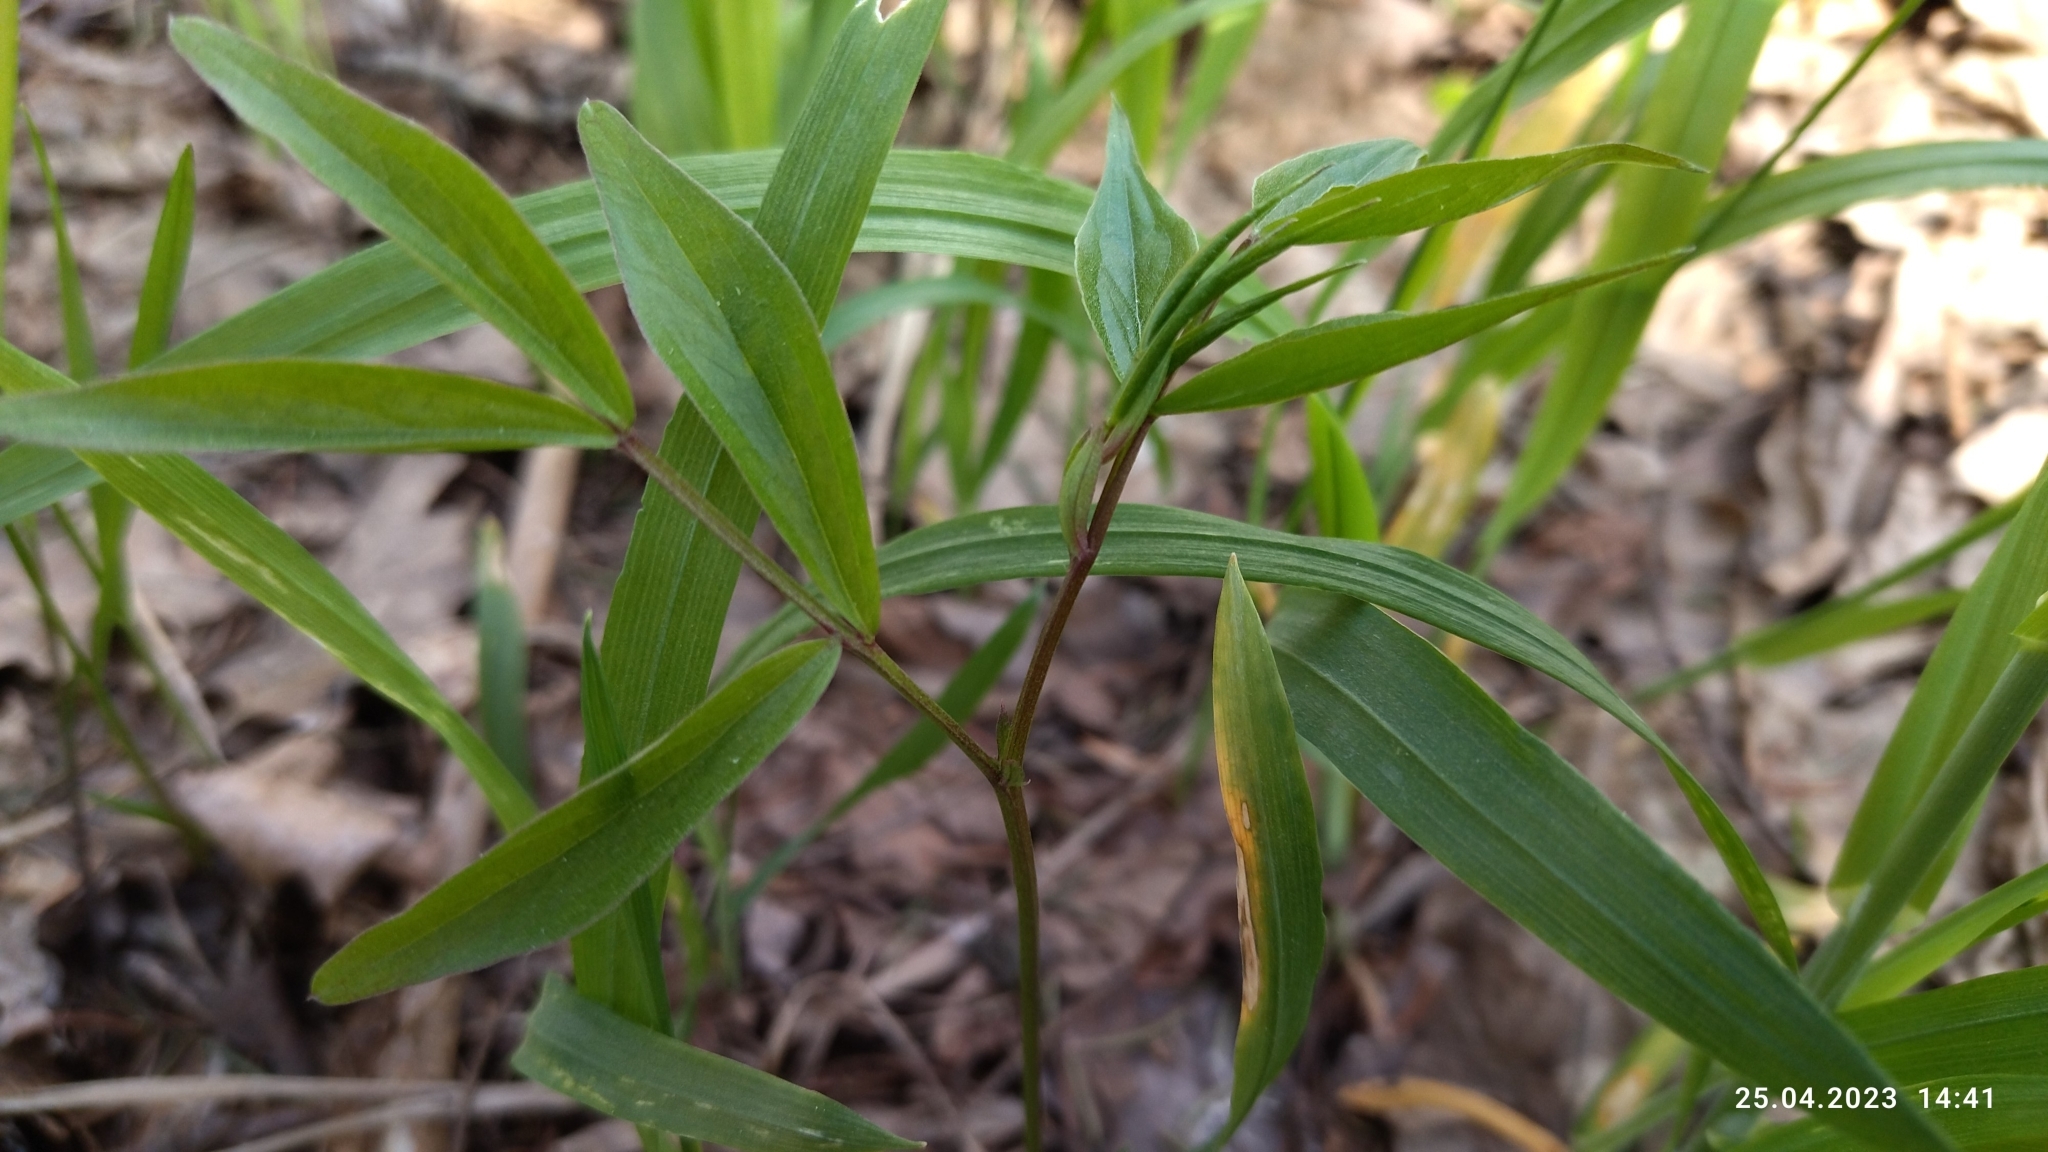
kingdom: Plantae
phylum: Tracheophyta
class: Magnoliopsida
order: Fabales
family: Fabaceae
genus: Lathyrus
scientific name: Lathyrus vernus
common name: Spring pea
